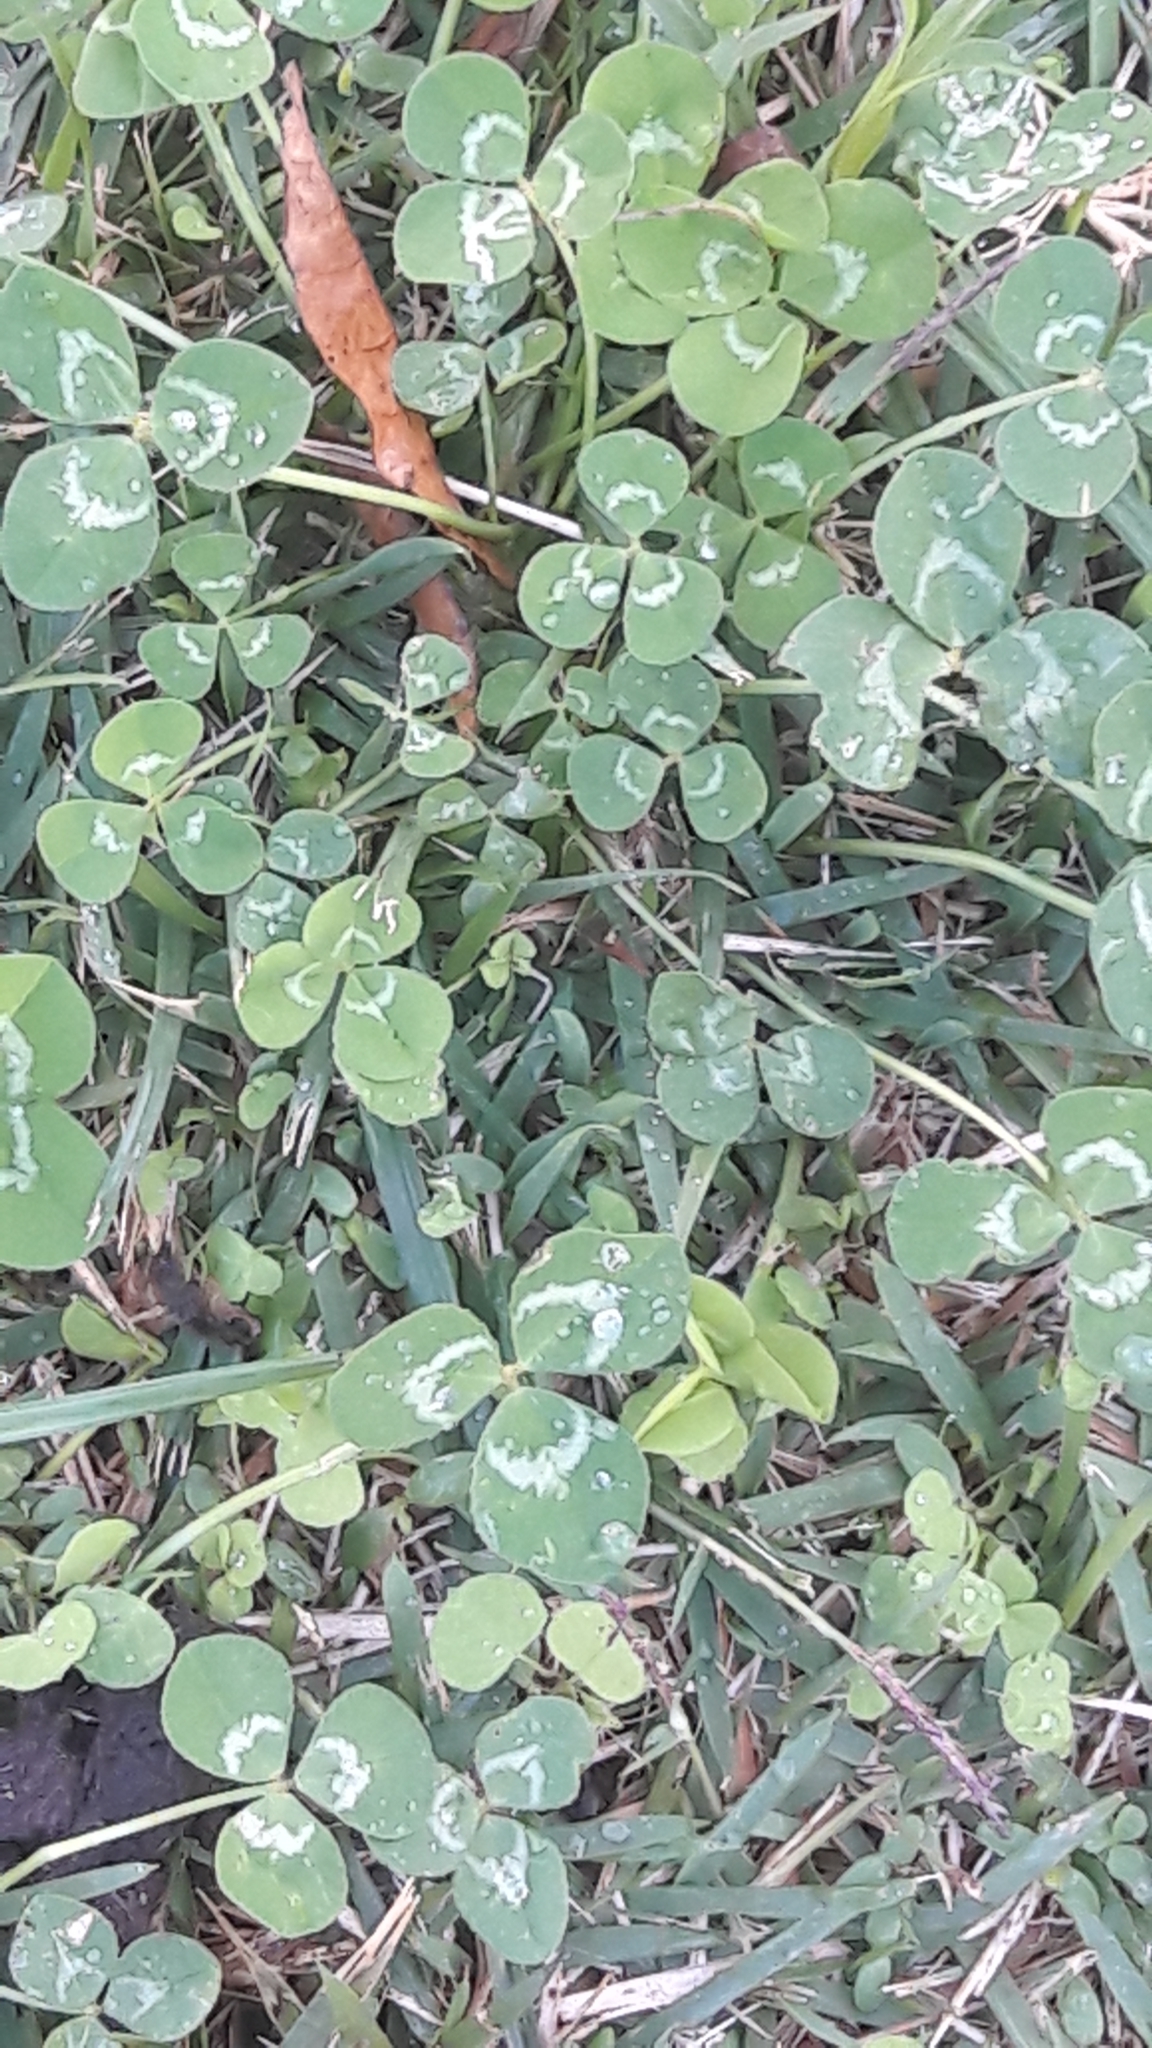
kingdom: Plantae
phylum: Tracheophyta
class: Magnoliopsida
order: Fabales
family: Fabaceae
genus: Trifolium
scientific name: Trifolium repens
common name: White clover
